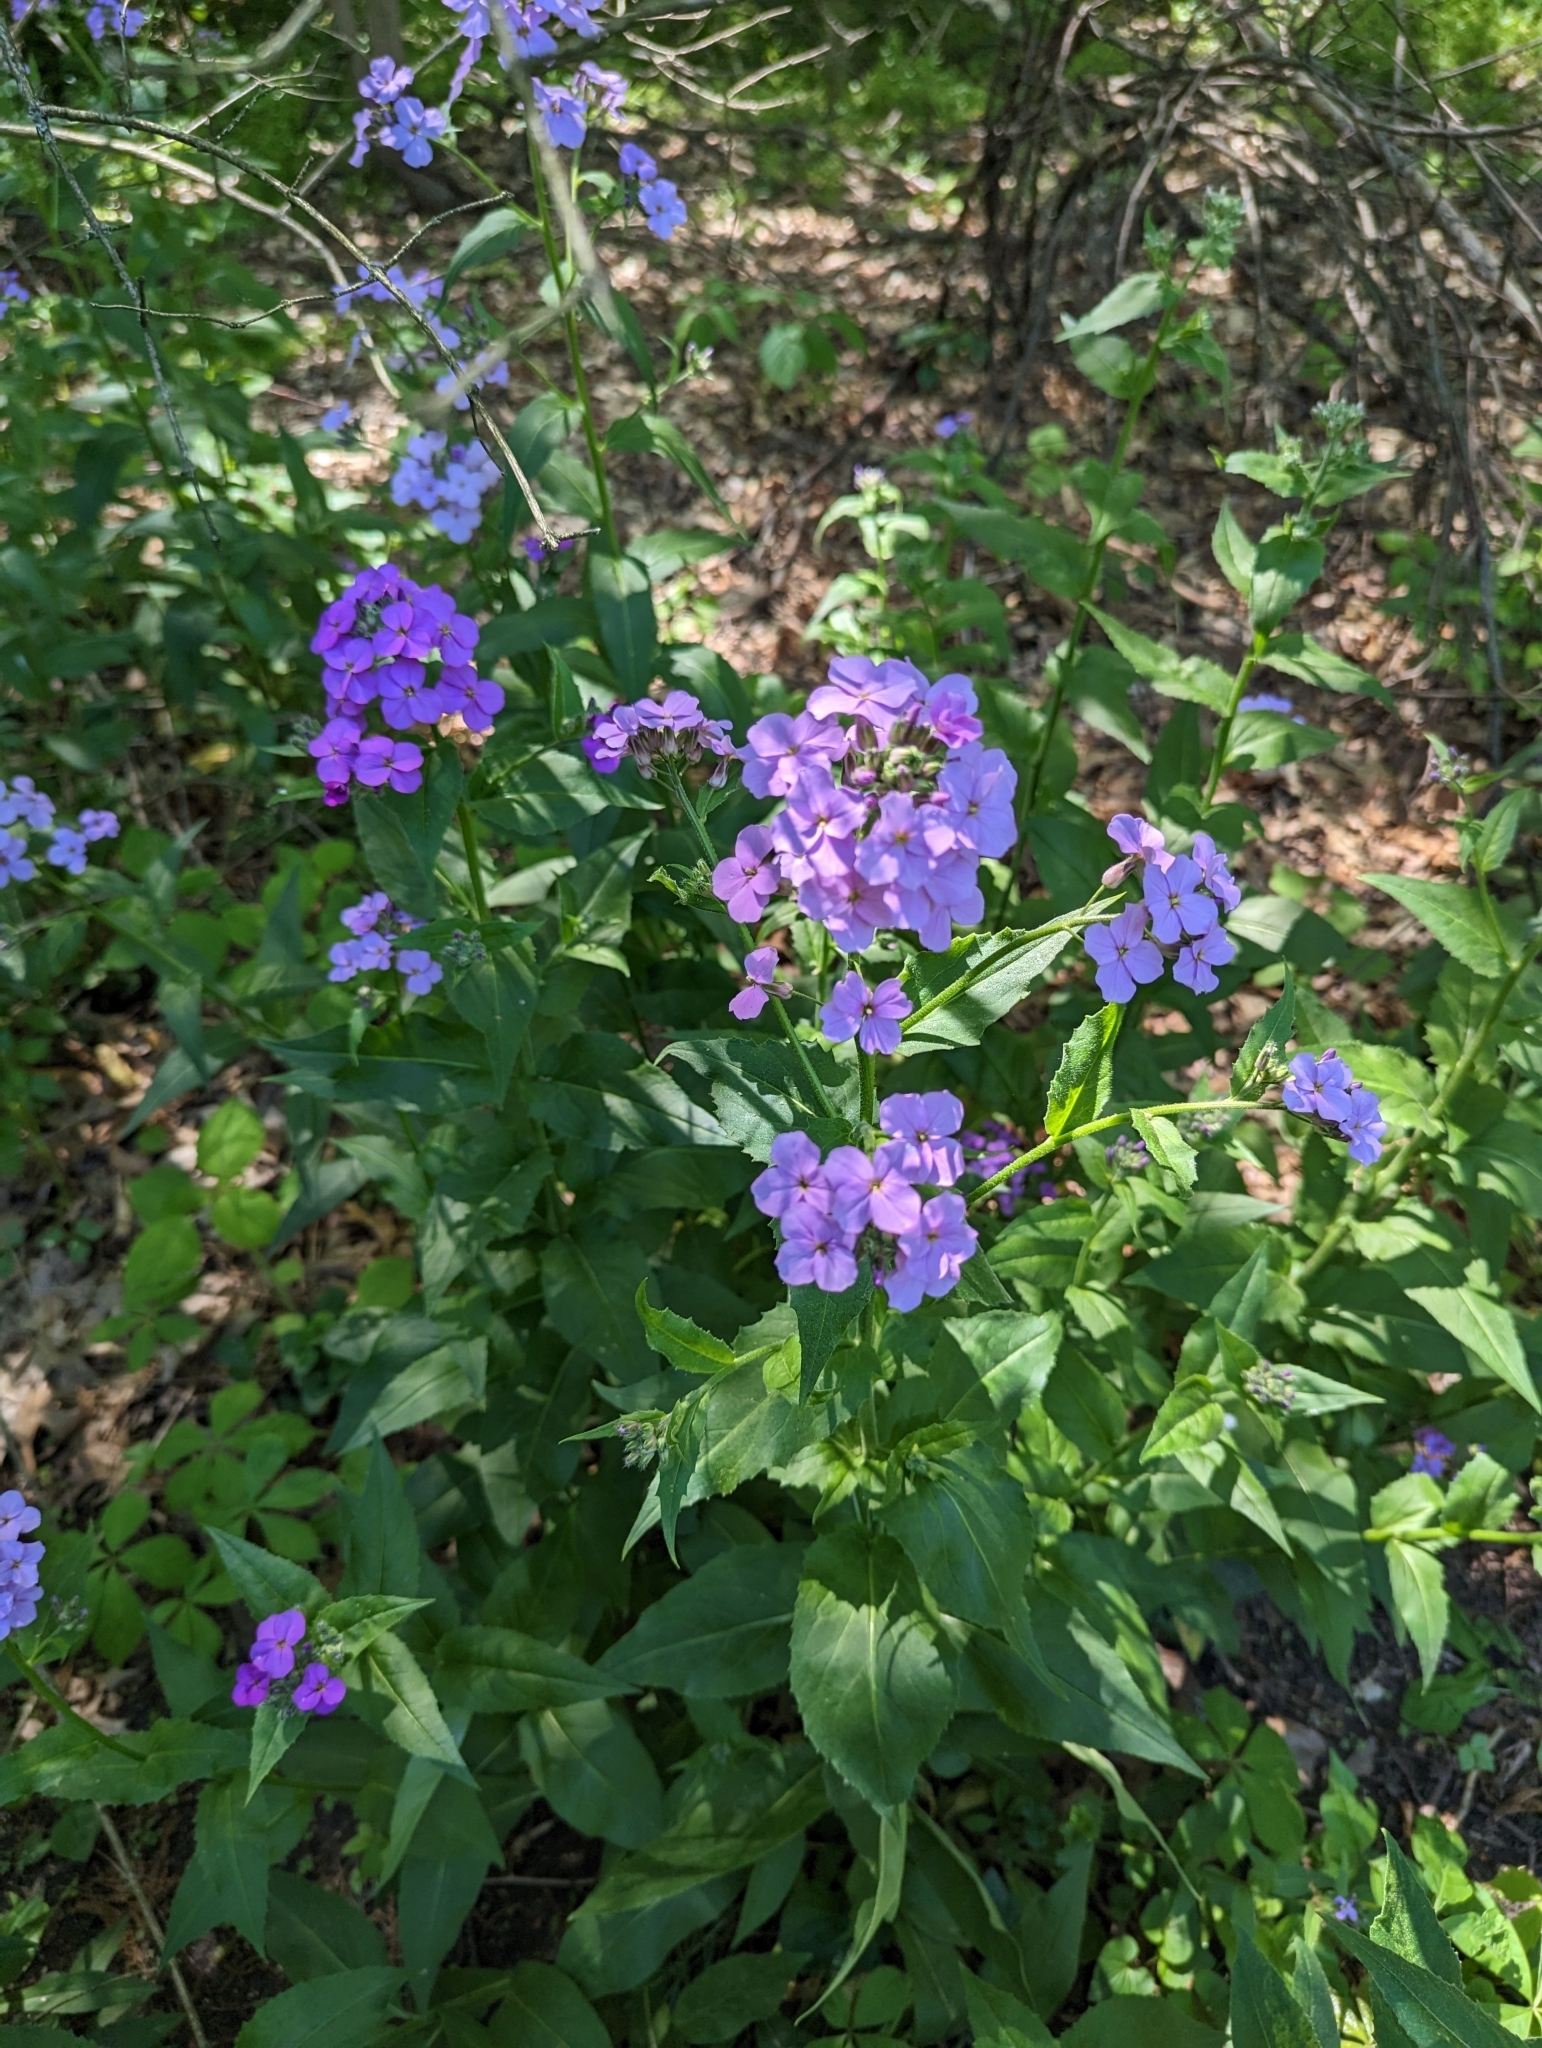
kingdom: Plantae
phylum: Tracheophyta
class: Magnoliopsida
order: Brassicales
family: Brassicaceae
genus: Hesperis
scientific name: Hesperis matronalis
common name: Dame's-violet
